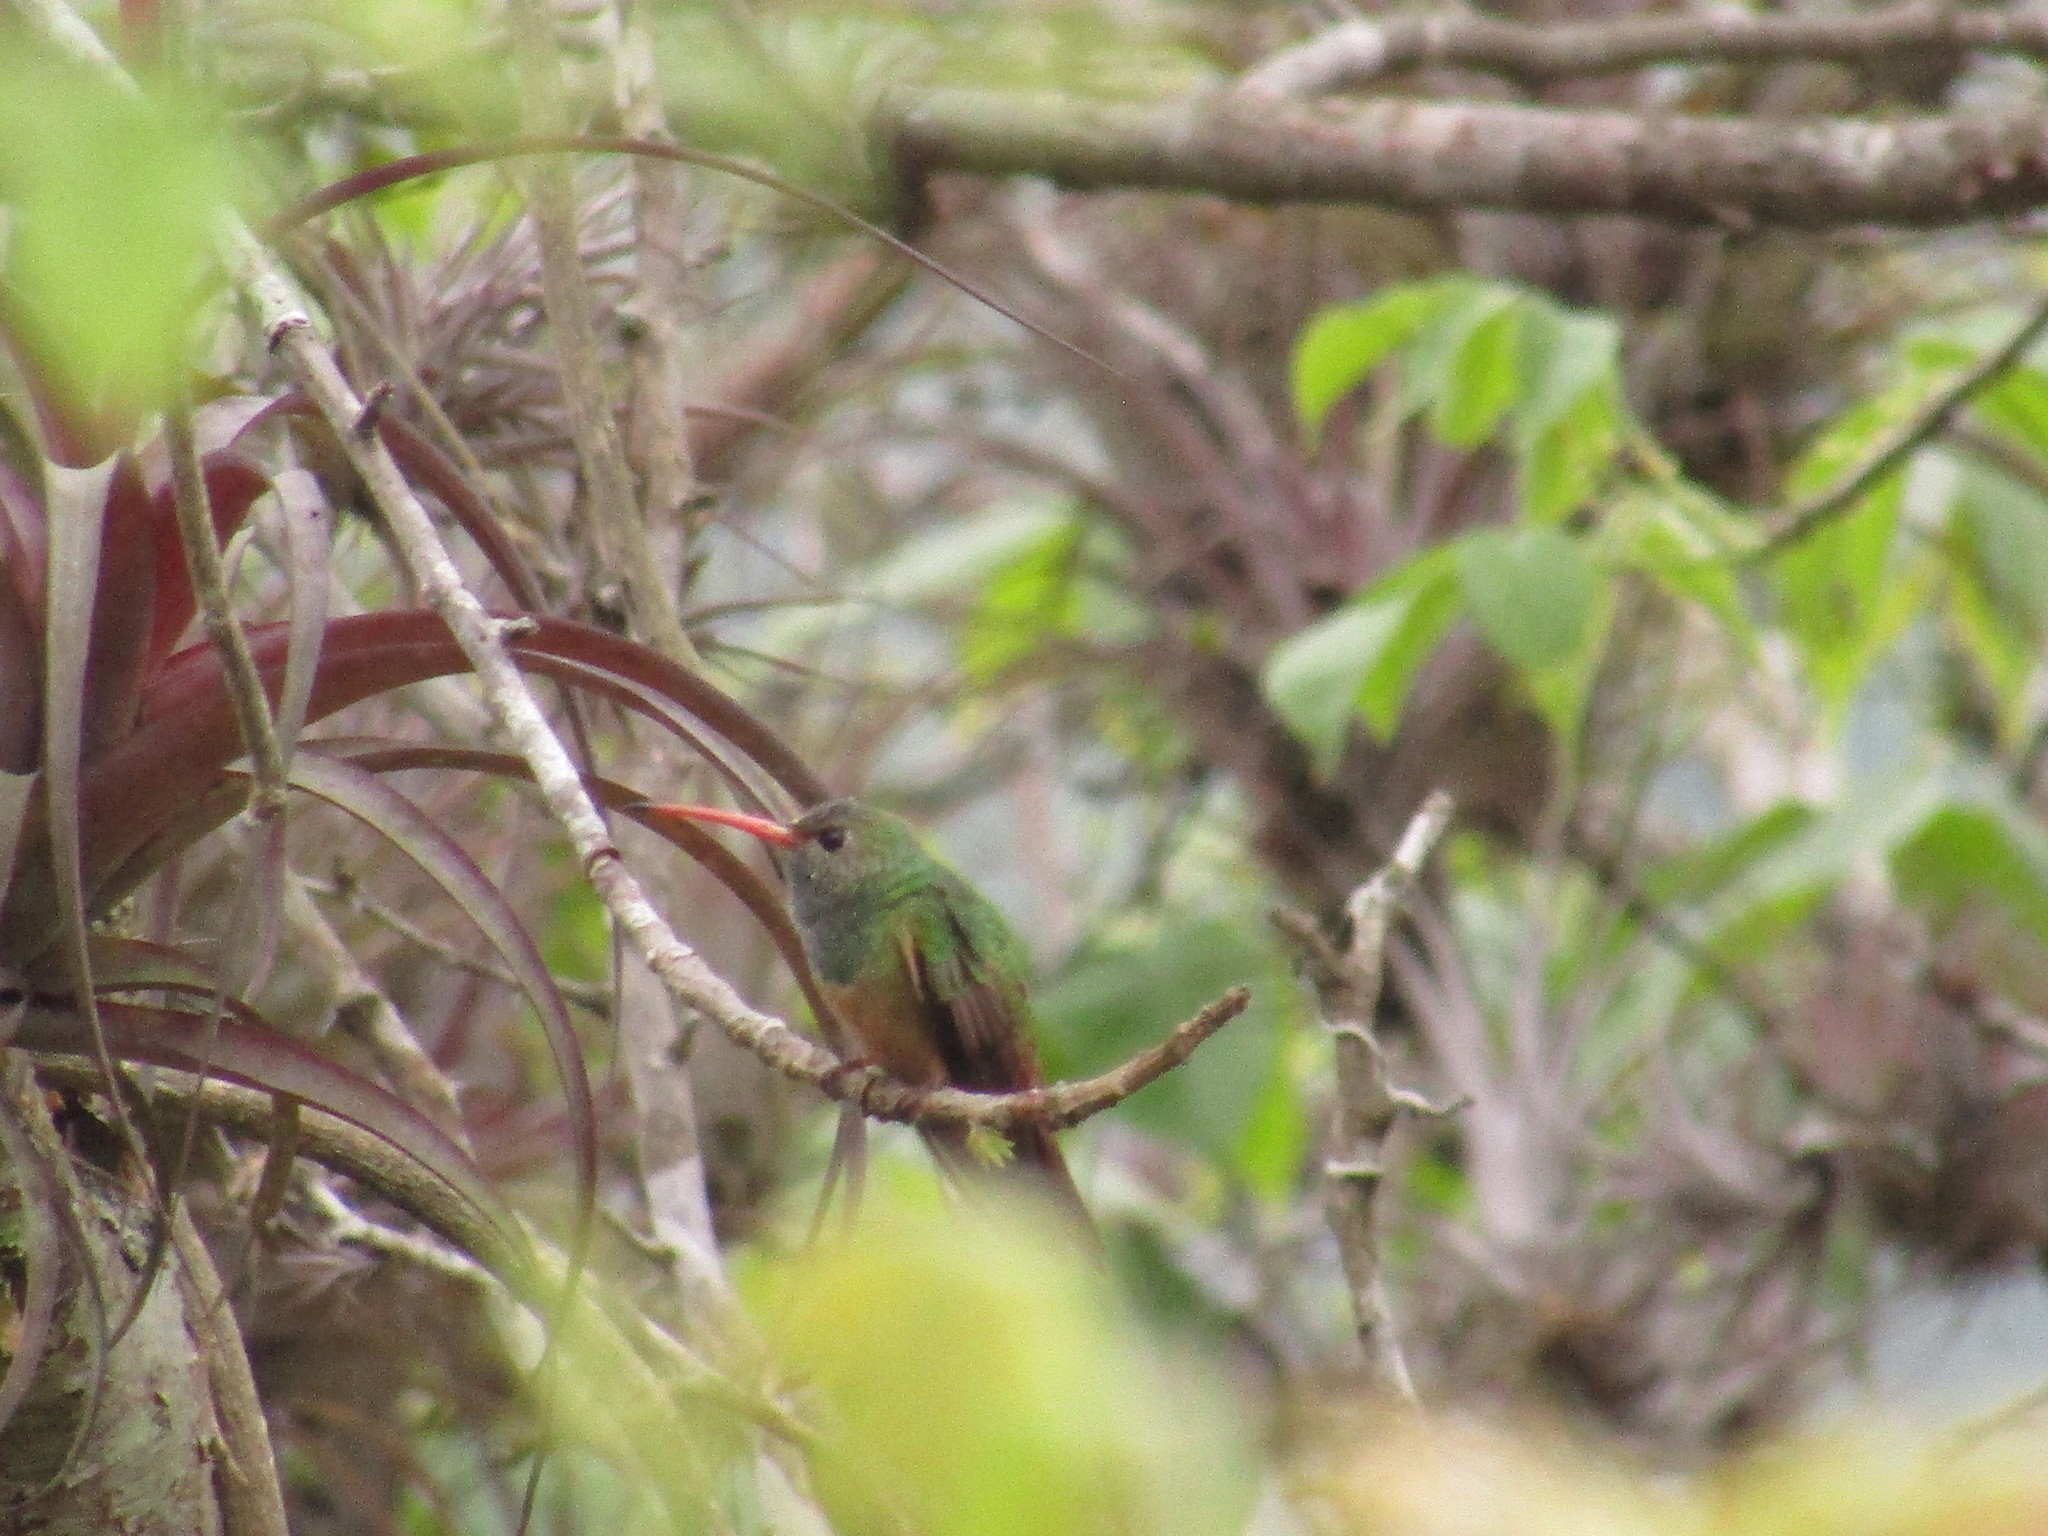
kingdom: Animalia
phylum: Chordata
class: Aves
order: Apodiformes
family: Trochilidae
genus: Amazilia
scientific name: Amazilia yucatanensis
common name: Buff-bellied hummingbird
